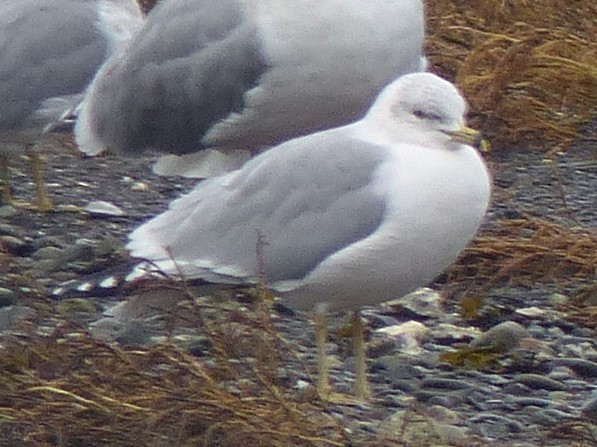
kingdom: Animalia
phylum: Chordata
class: Aves
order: Charadriiformes
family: Laridae
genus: Larus
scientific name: Larus delawarensis
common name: Ring-billed gull
